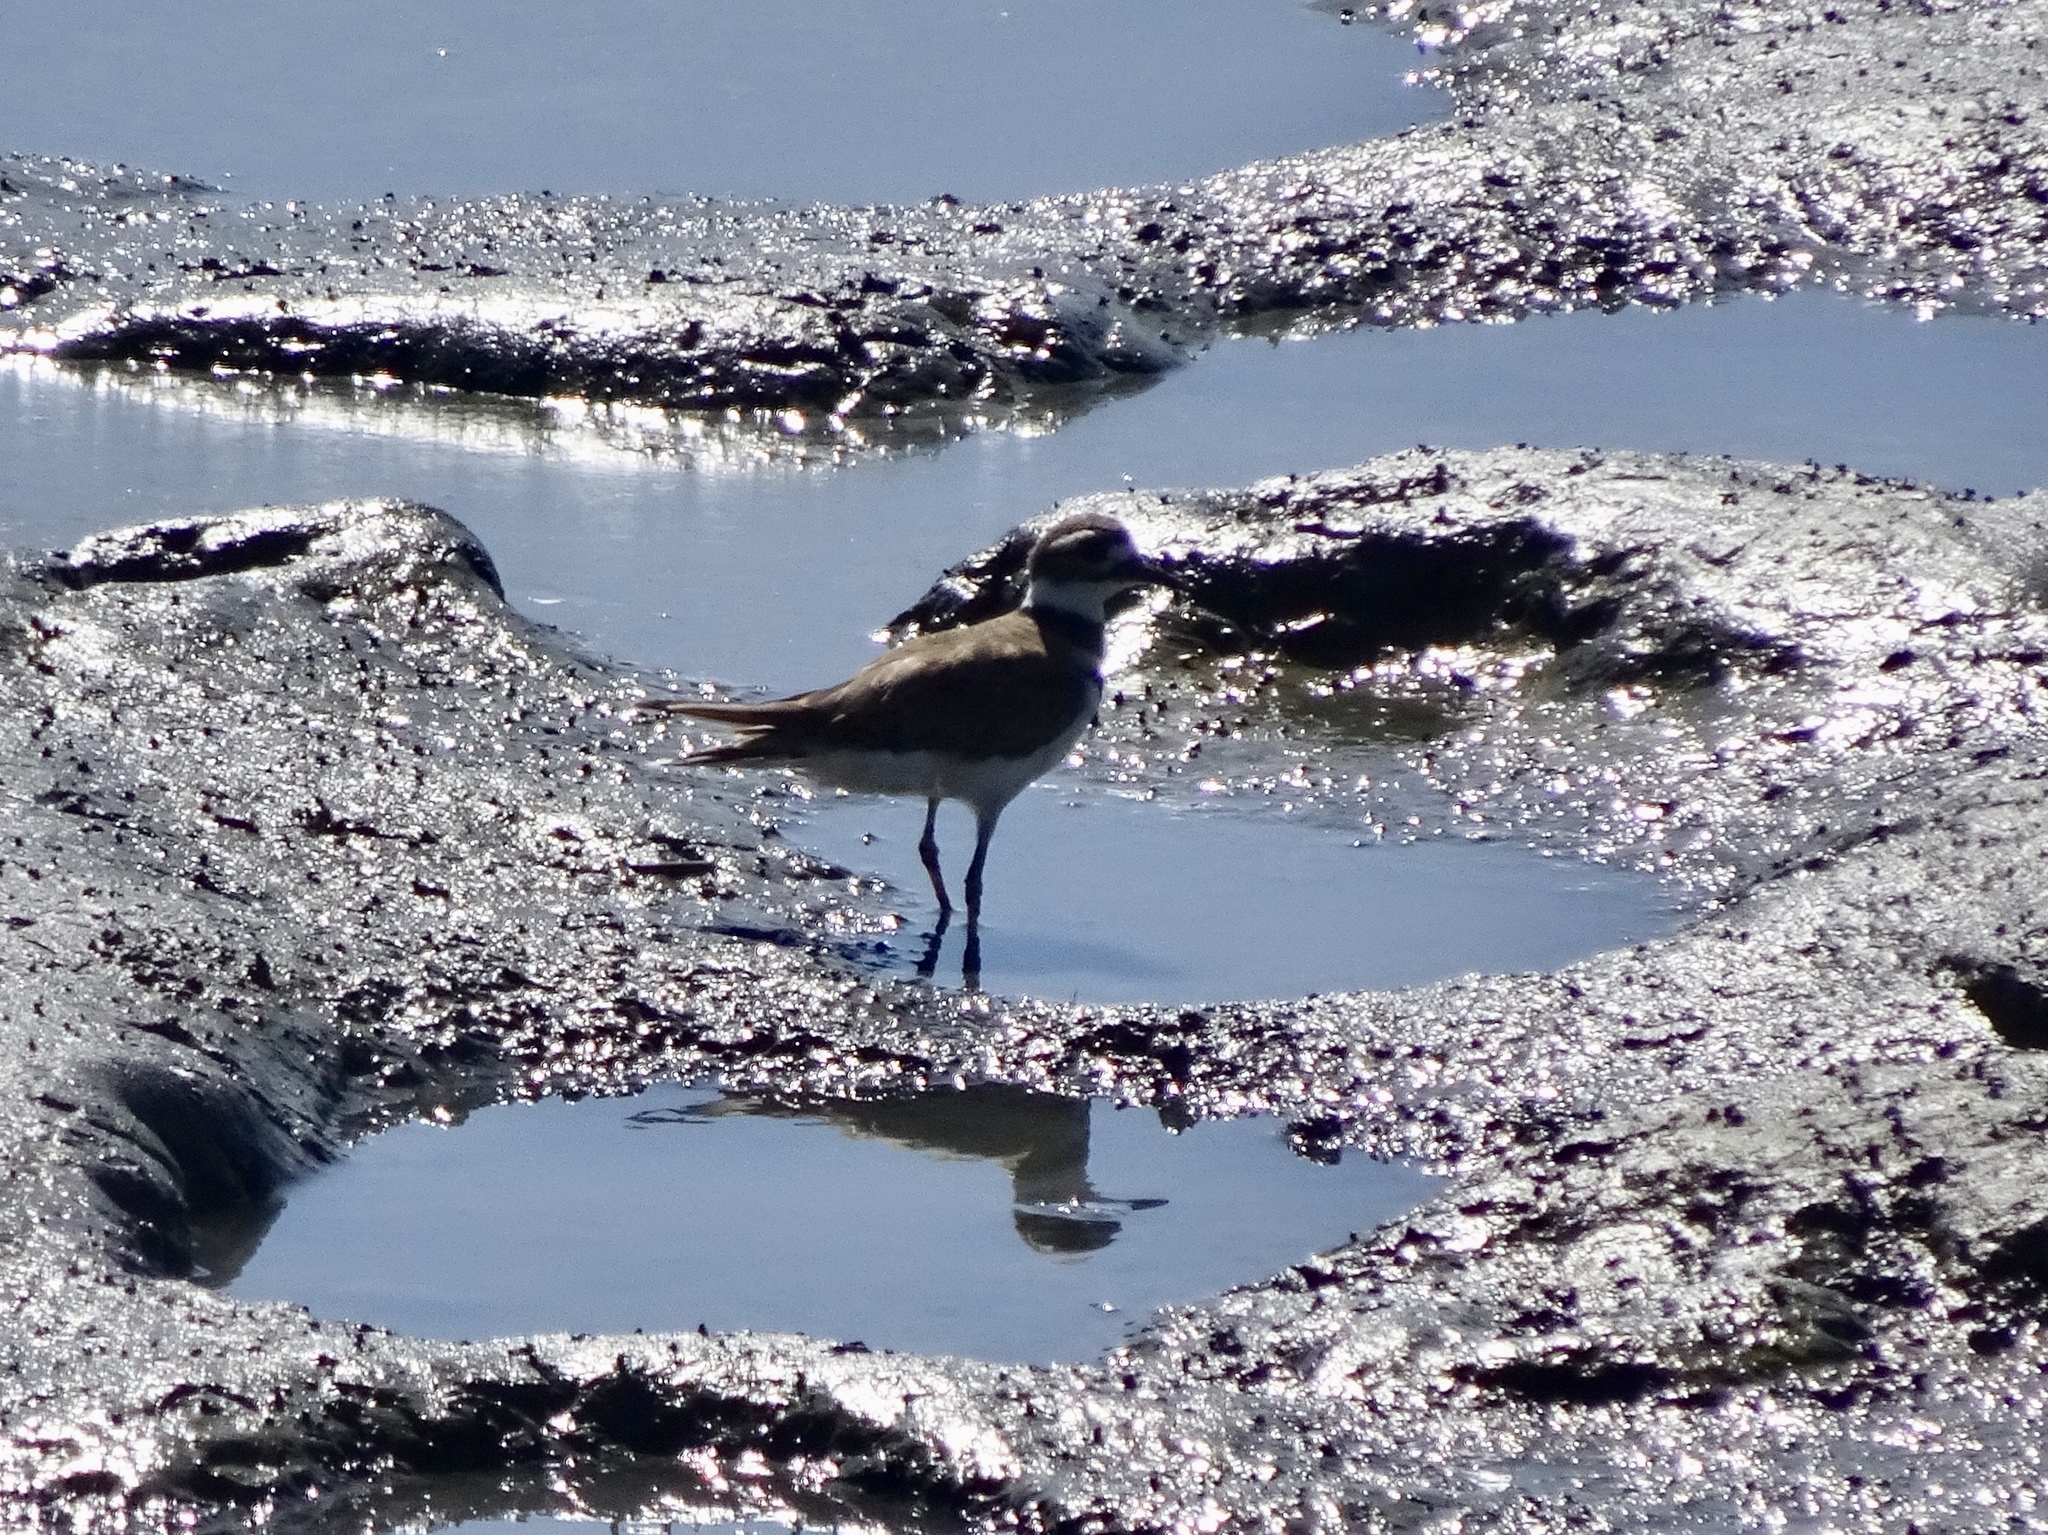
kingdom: Animalia
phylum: Chordata
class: Aves
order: Charadriiformes
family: Charadriidae
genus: Charadrius
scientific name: Charadrius vociferus
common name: Killdeer
